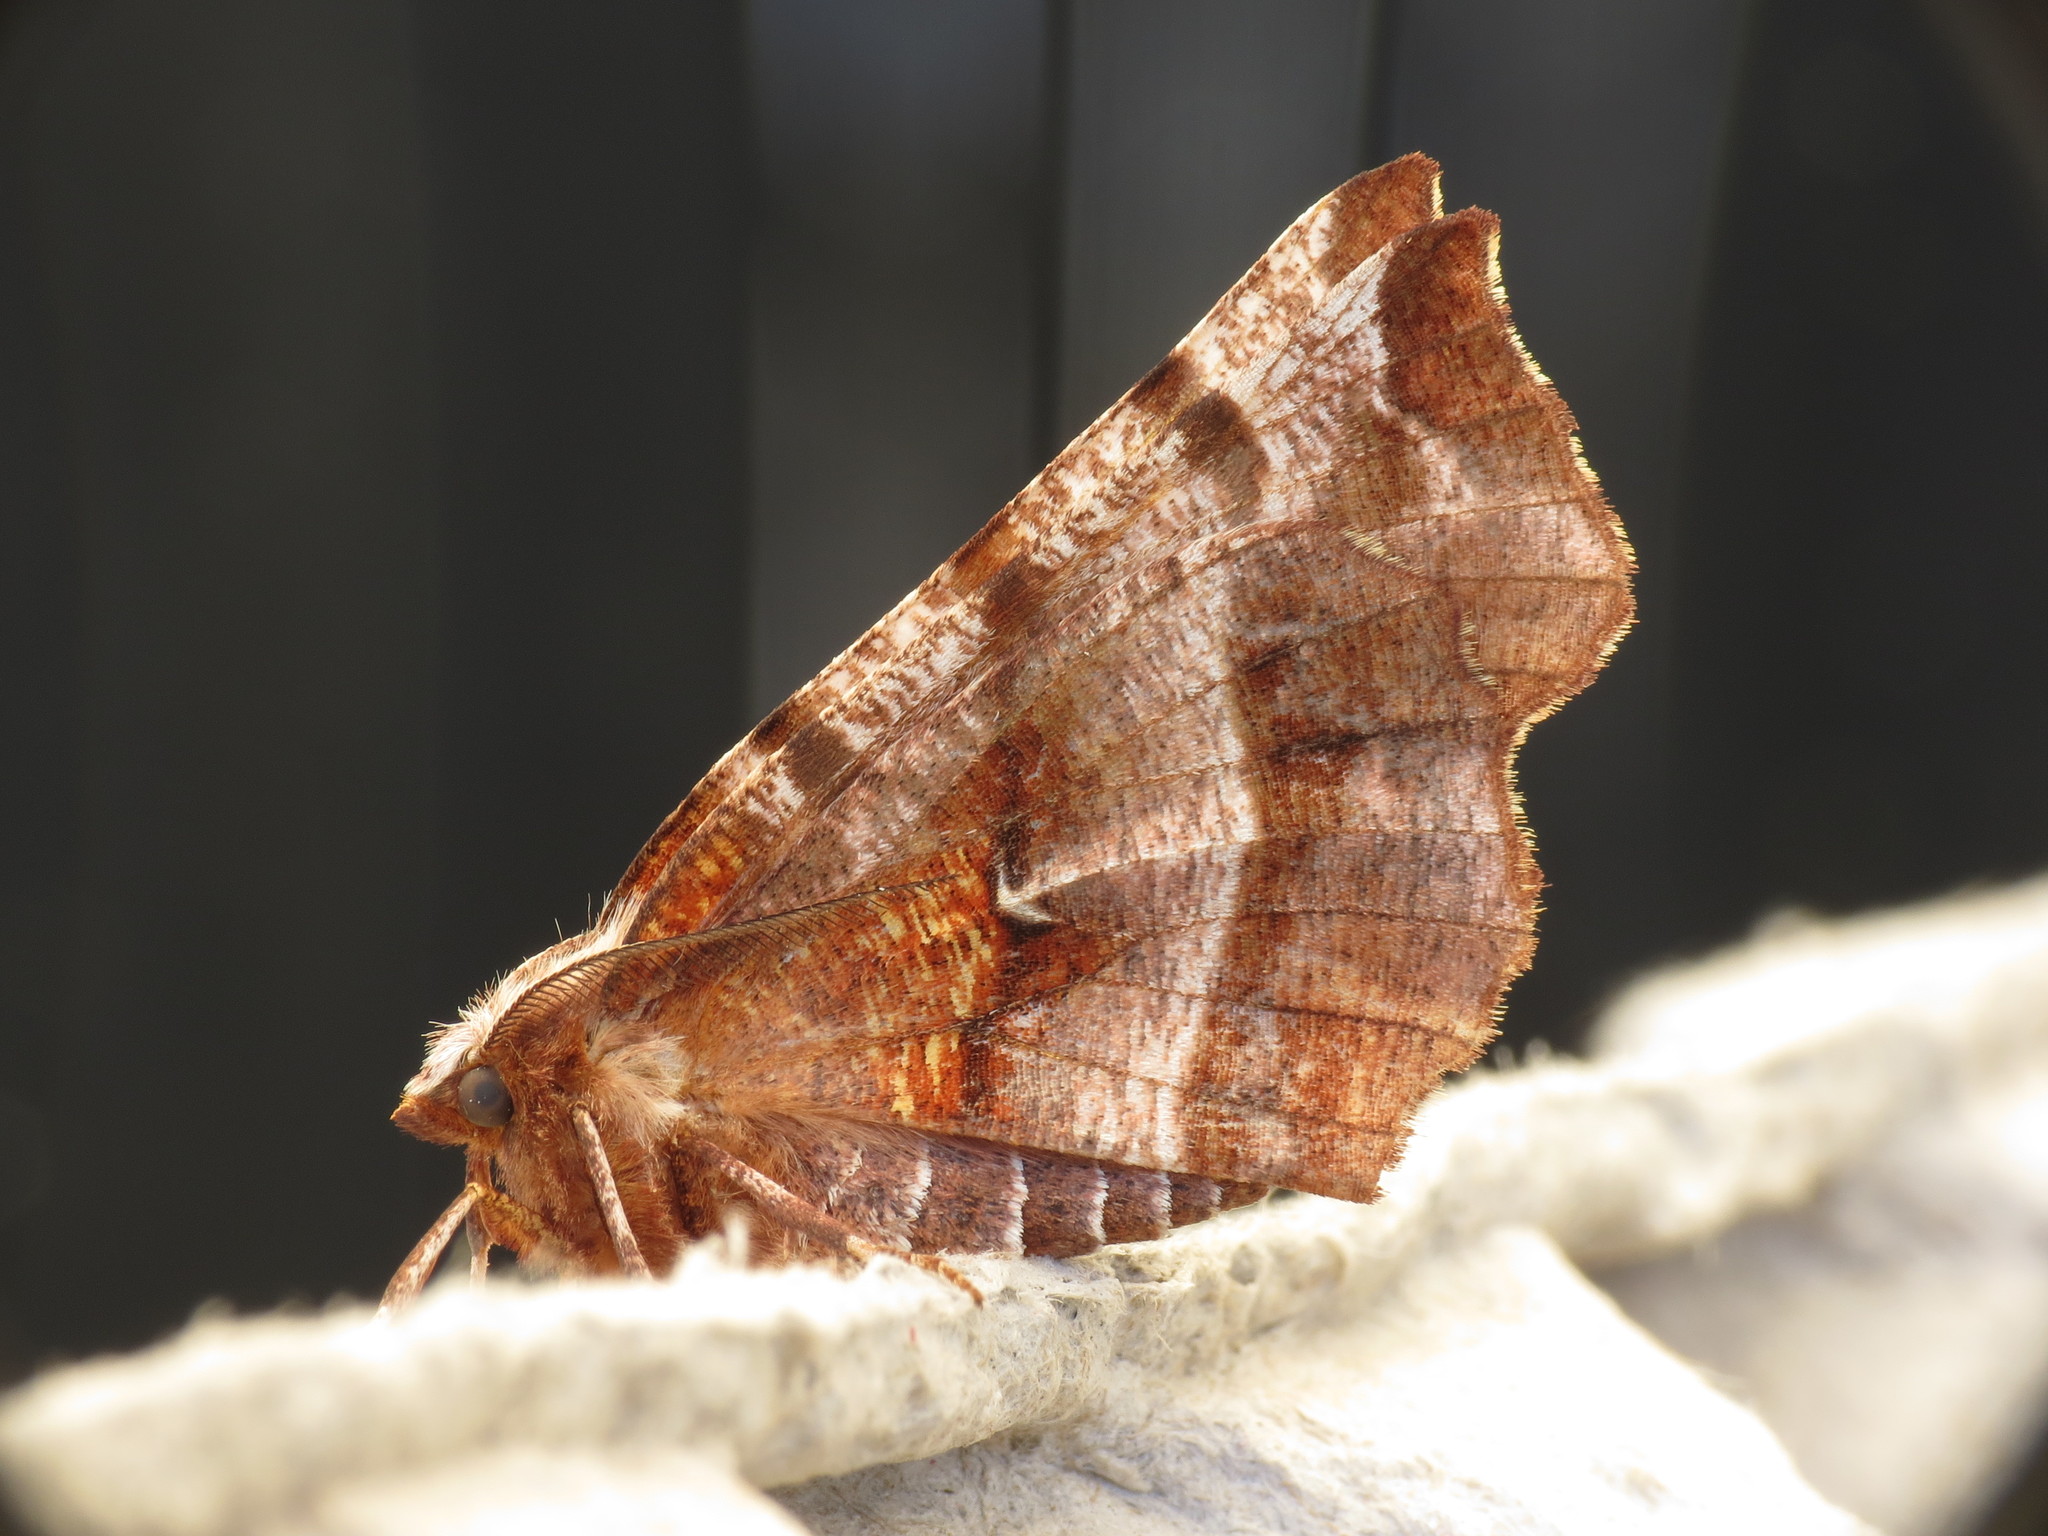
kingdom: Animalia
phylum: Arthropoda
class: Insecta
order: Lepidoptera
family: Geometridae
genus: Selenia
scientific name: Selenia dentaria
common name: Early thorn
